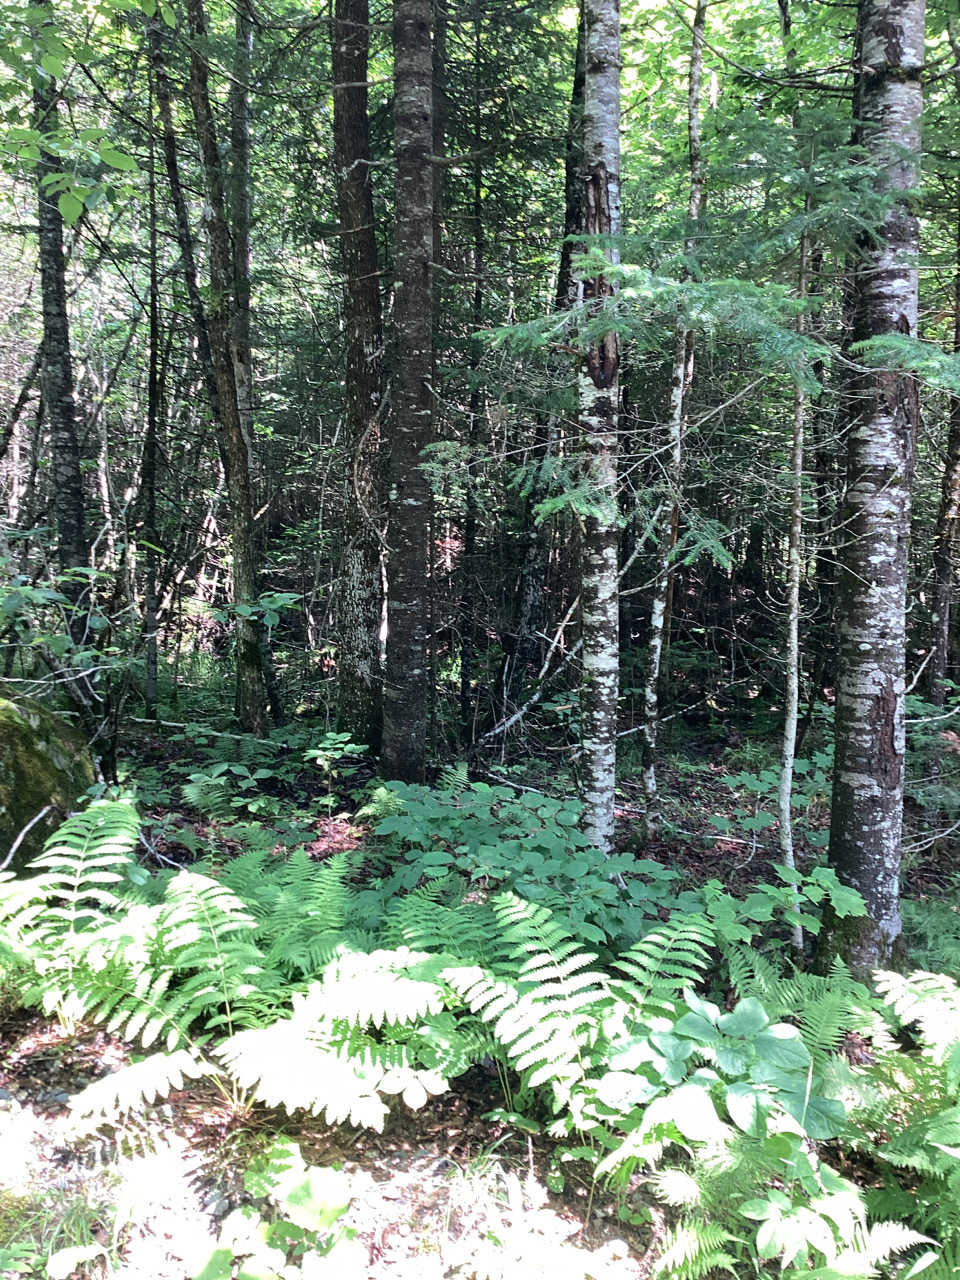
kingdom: Plantae
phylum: Tracheophyta
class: Magnoliopsida
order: Dipsacales
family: Viburnaceae
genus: Viburnum
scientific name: Viburnum lantanoides
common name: Hobblebush
